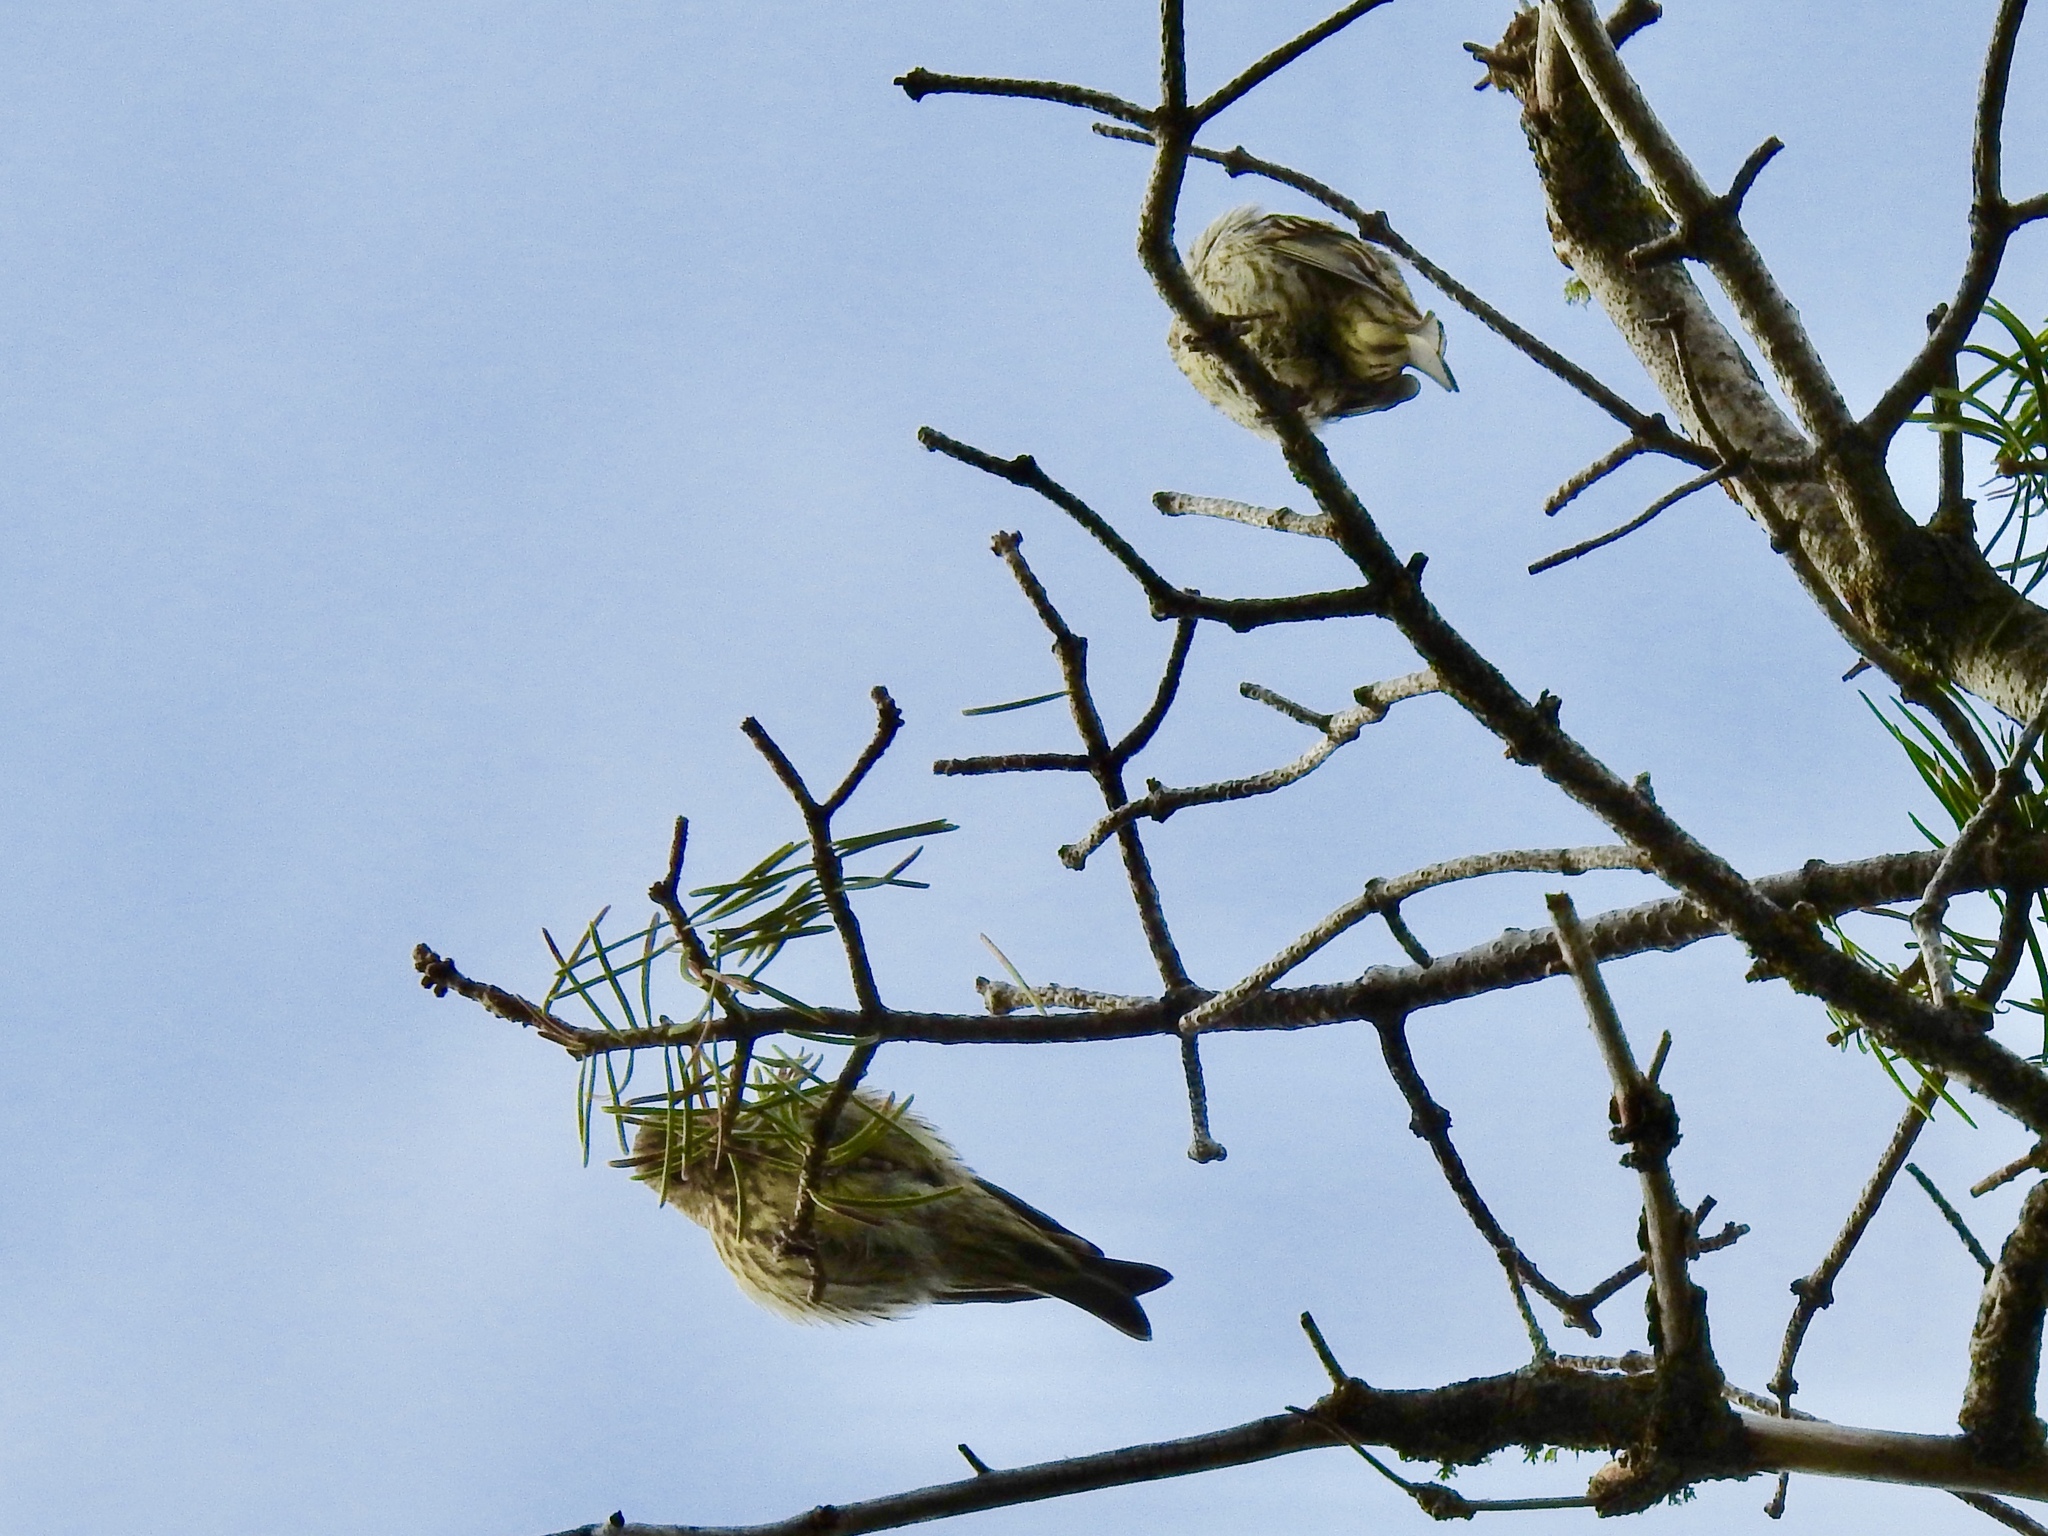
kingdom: Animalia
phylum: Chordata
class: Aves
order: Passeriformes
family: Fringillidae
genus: Spinus
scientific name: Spinus pinus
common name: Pine siskin
